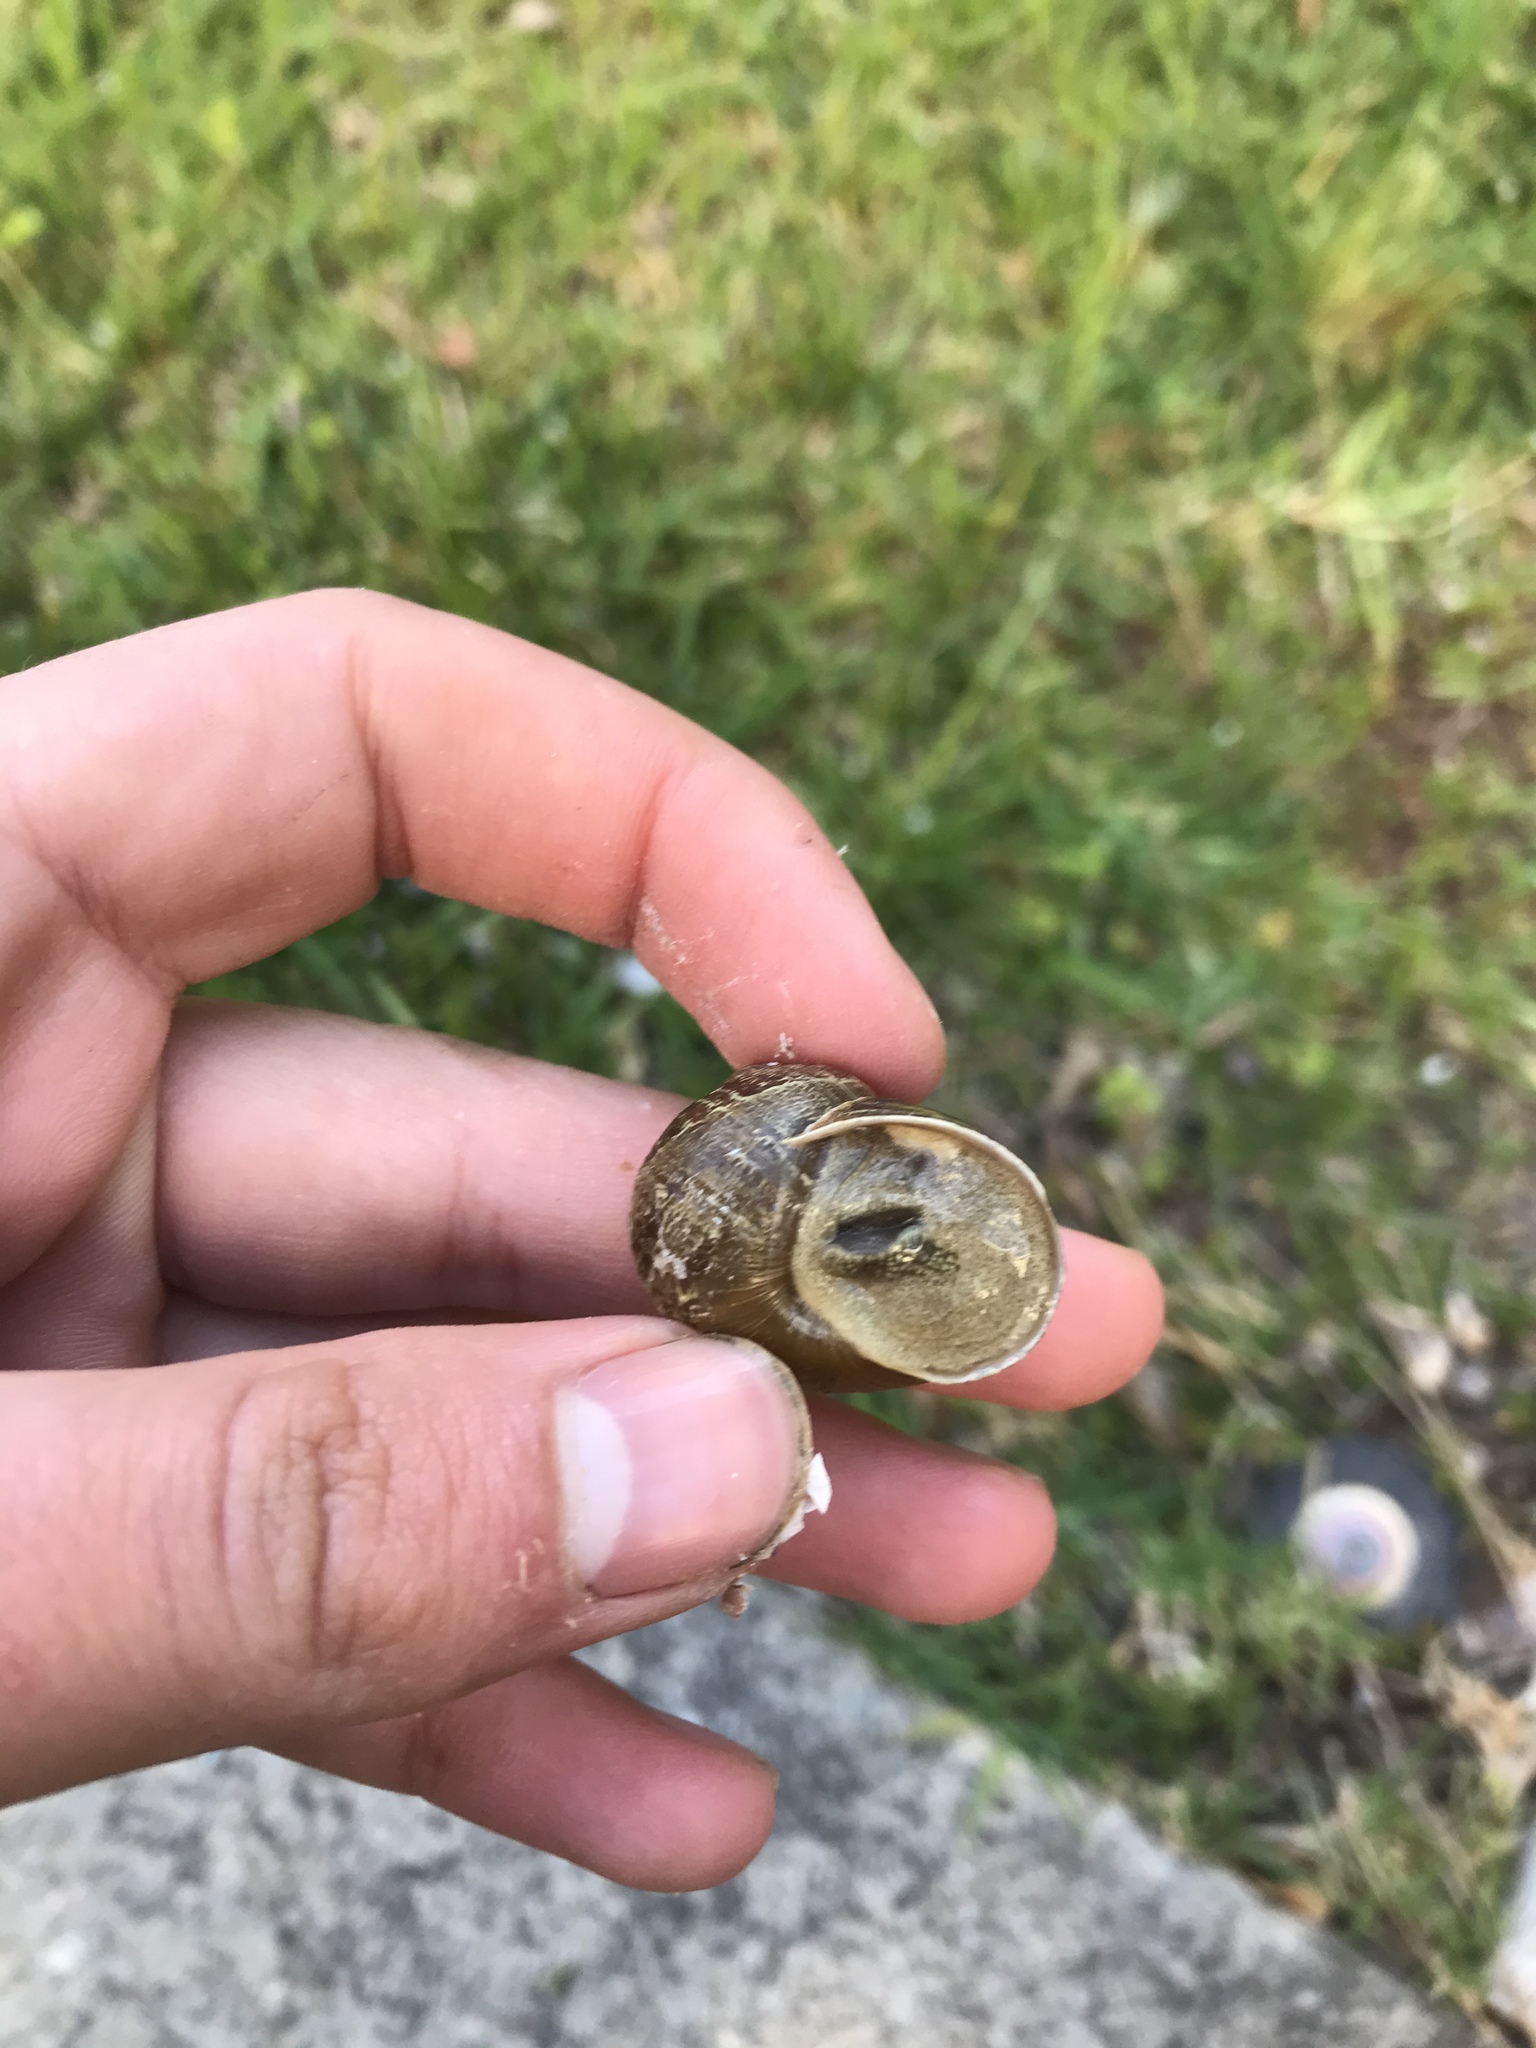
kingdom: Animalia
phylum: Mollusca
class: Gastropoda
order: Stylommatophora
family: Helicidae
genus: Cornu
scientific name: Cornu aspersum
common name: Brown garden snail
